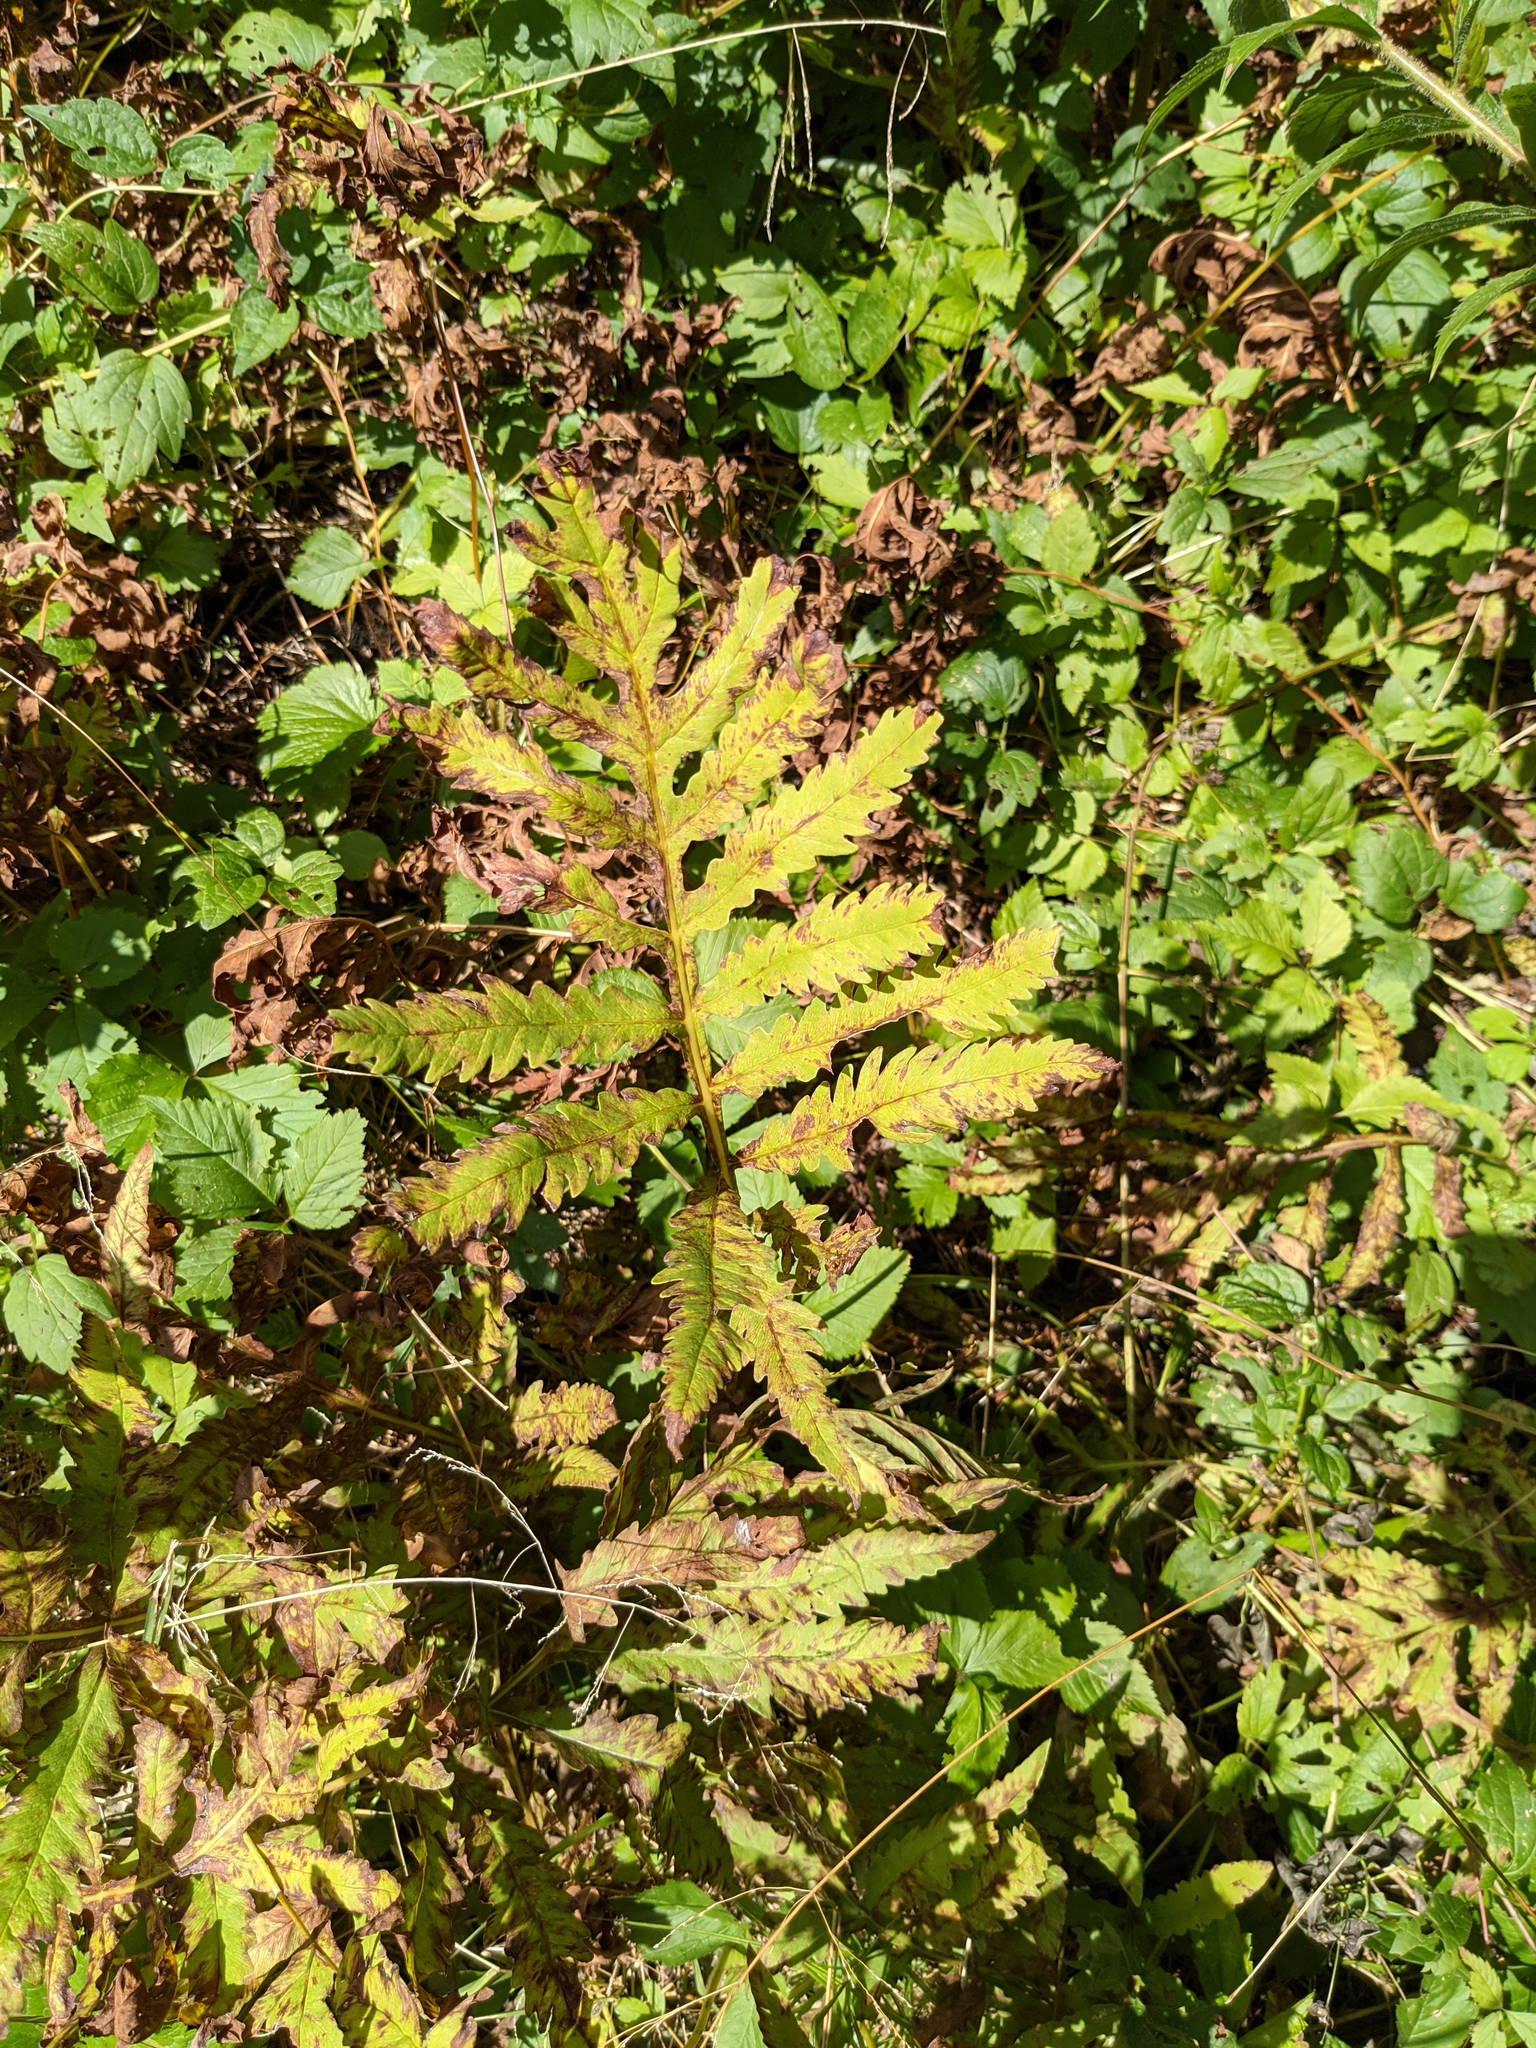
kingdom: Plantae
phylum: Tracheophyta
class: Polypodiopsida
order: Polypodiales
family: Onocleaceae
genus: Onoclea
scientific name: Onoclea sensibilis
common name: Sensitive fern
